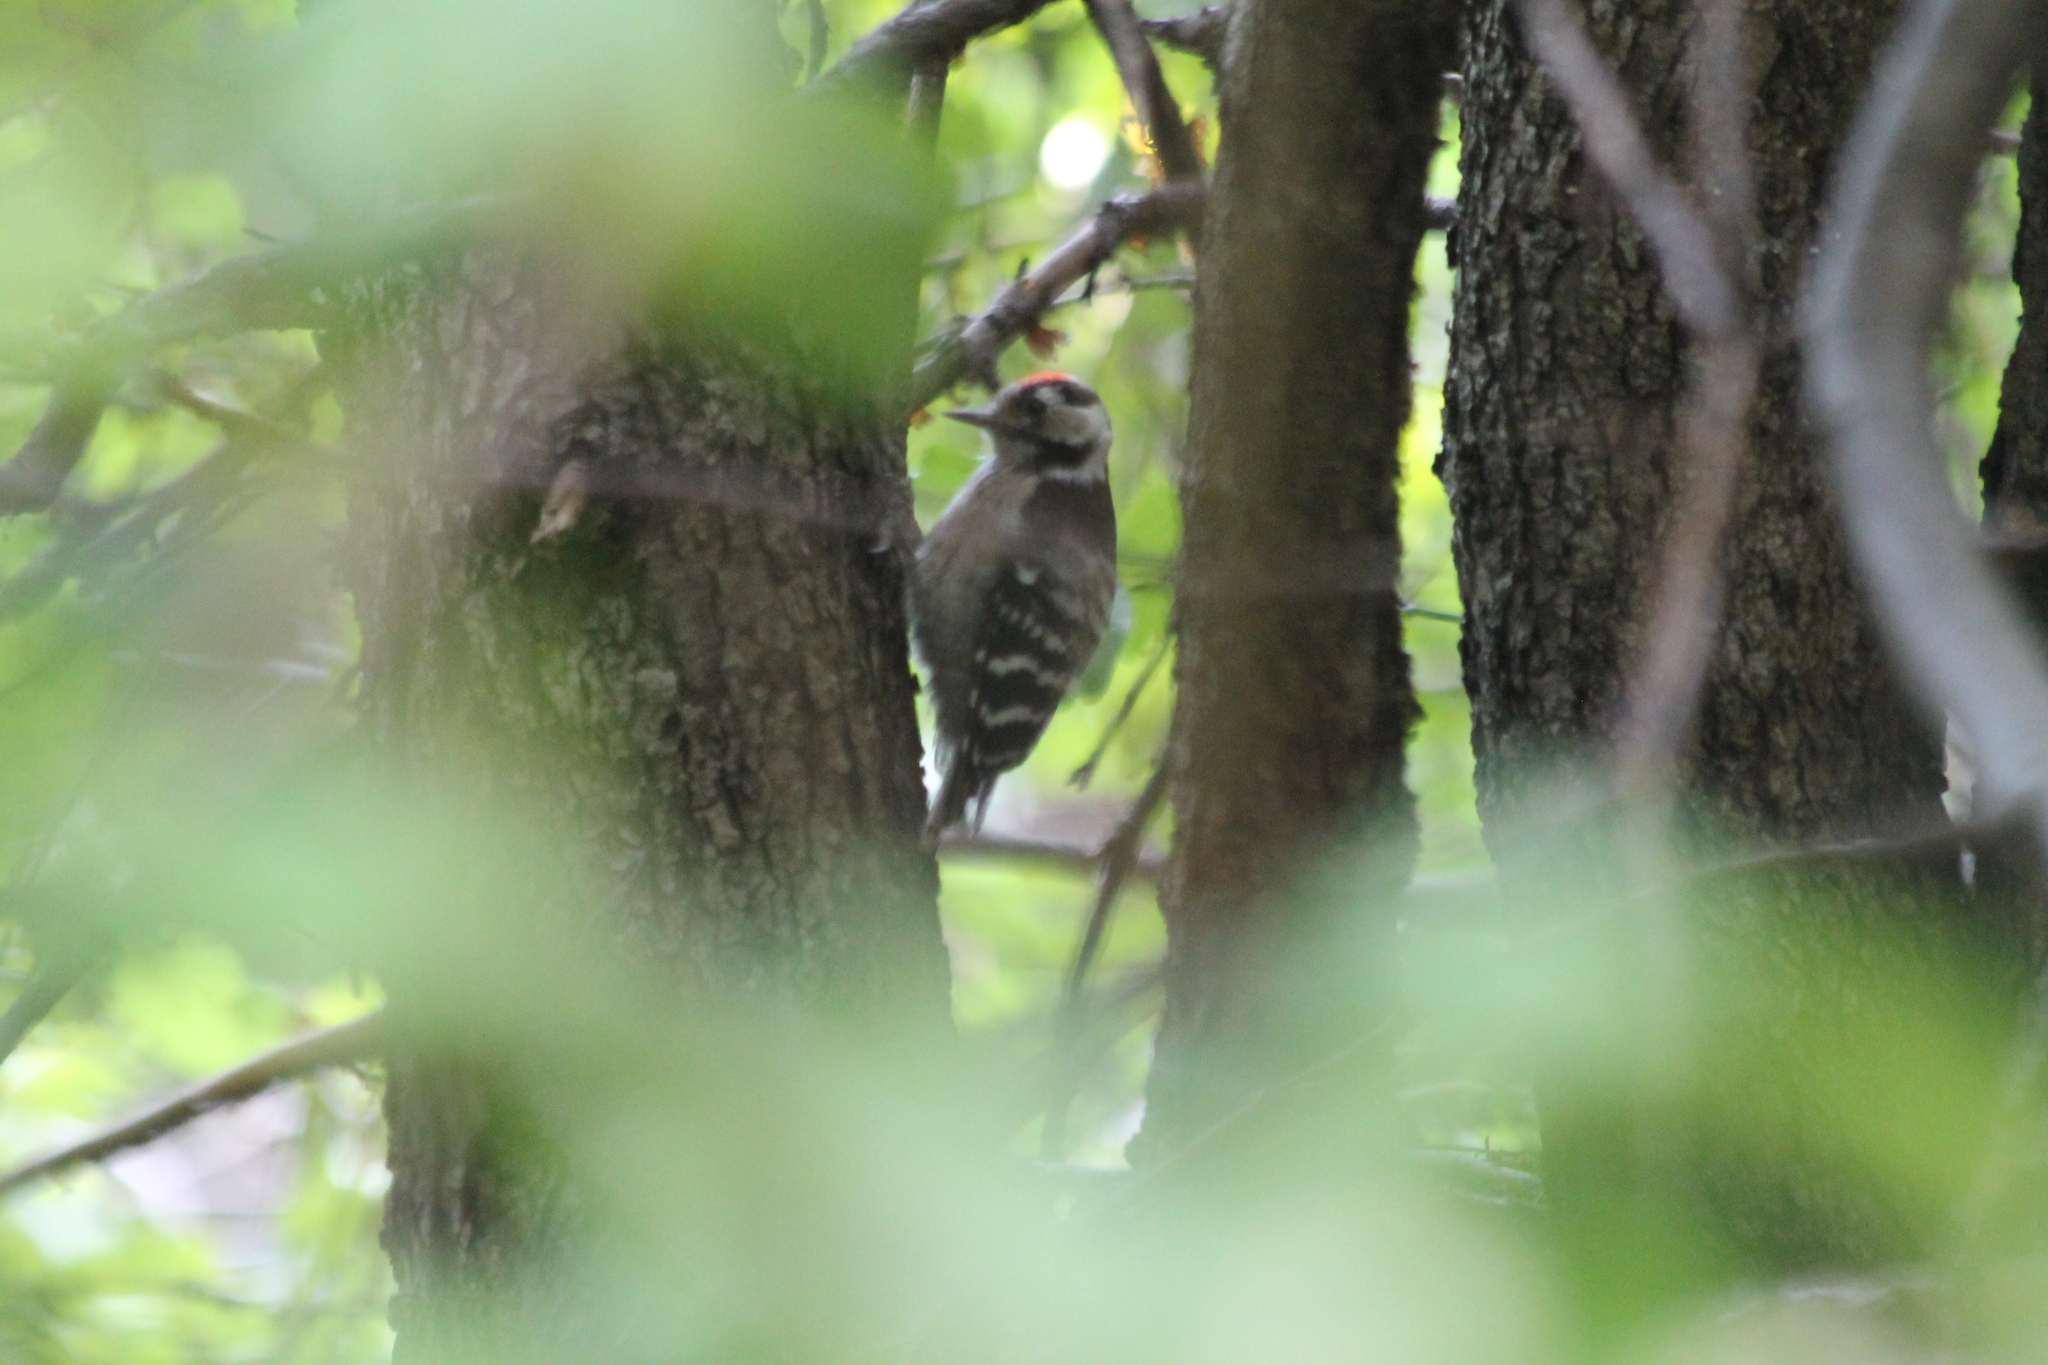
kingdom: Animalia
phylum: Chordata
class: Aves
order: Piciformes
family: Picidae
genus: Dryobates
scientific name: Dryobates minor
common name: Lesser spotted woodpecker
